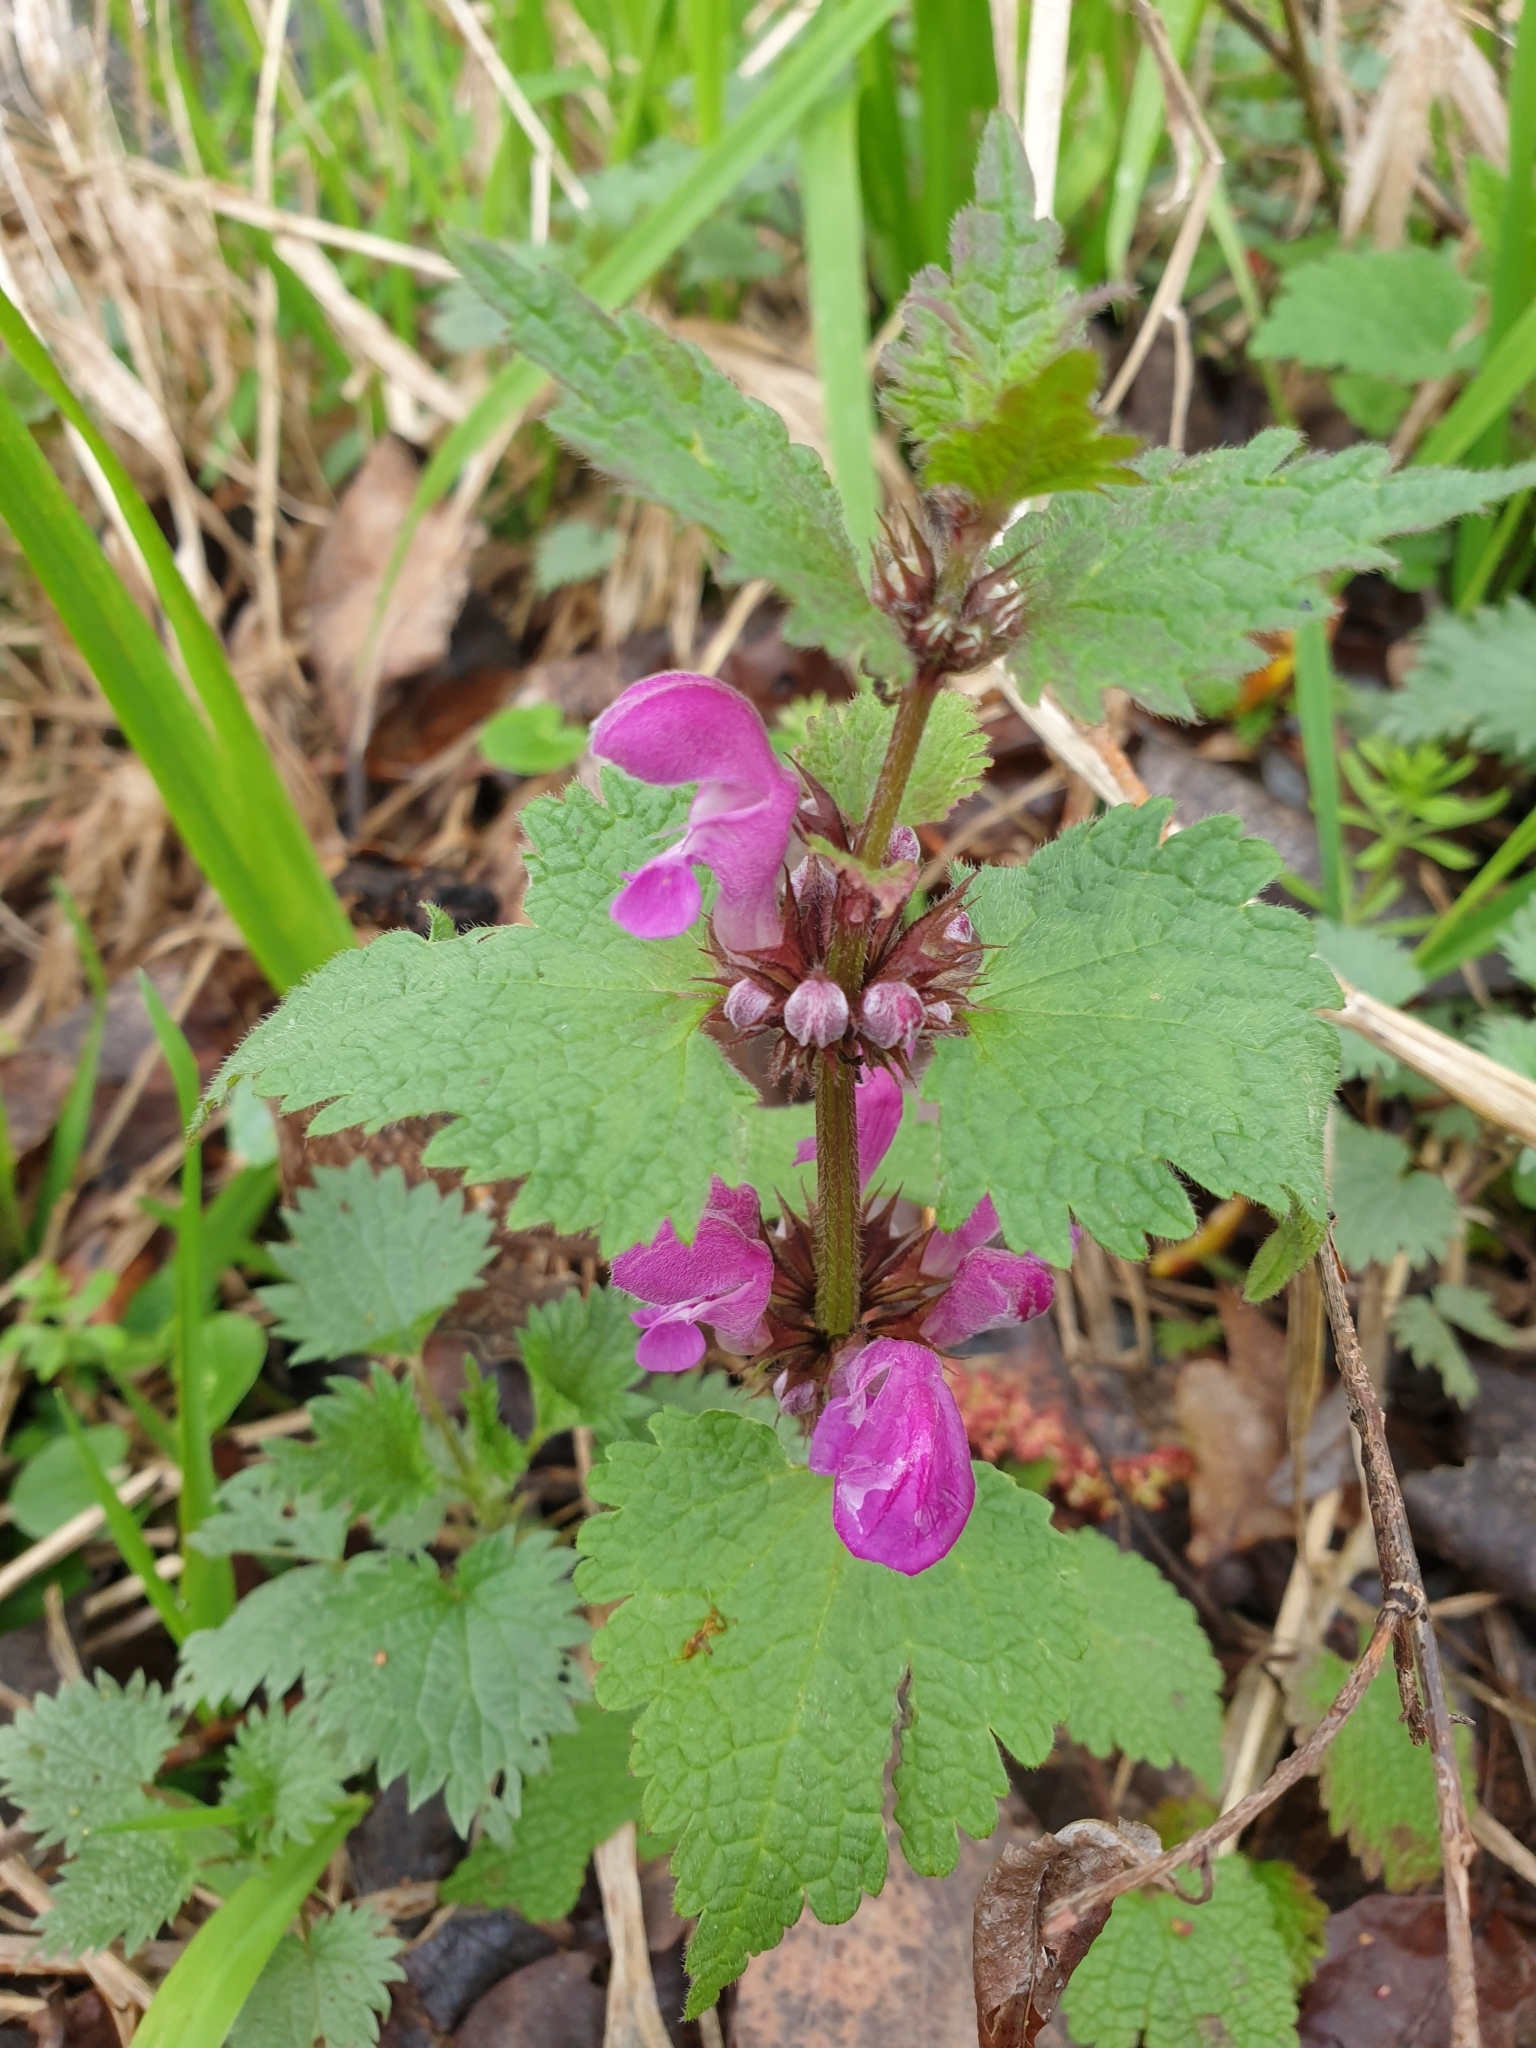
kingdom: Plantae
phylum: Tracheophyta
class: Magnoliopsida
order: Lamiales
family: Lamiaceae
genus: Lamium
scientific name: Lamium maculatum
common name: Spotted dead-nettle
